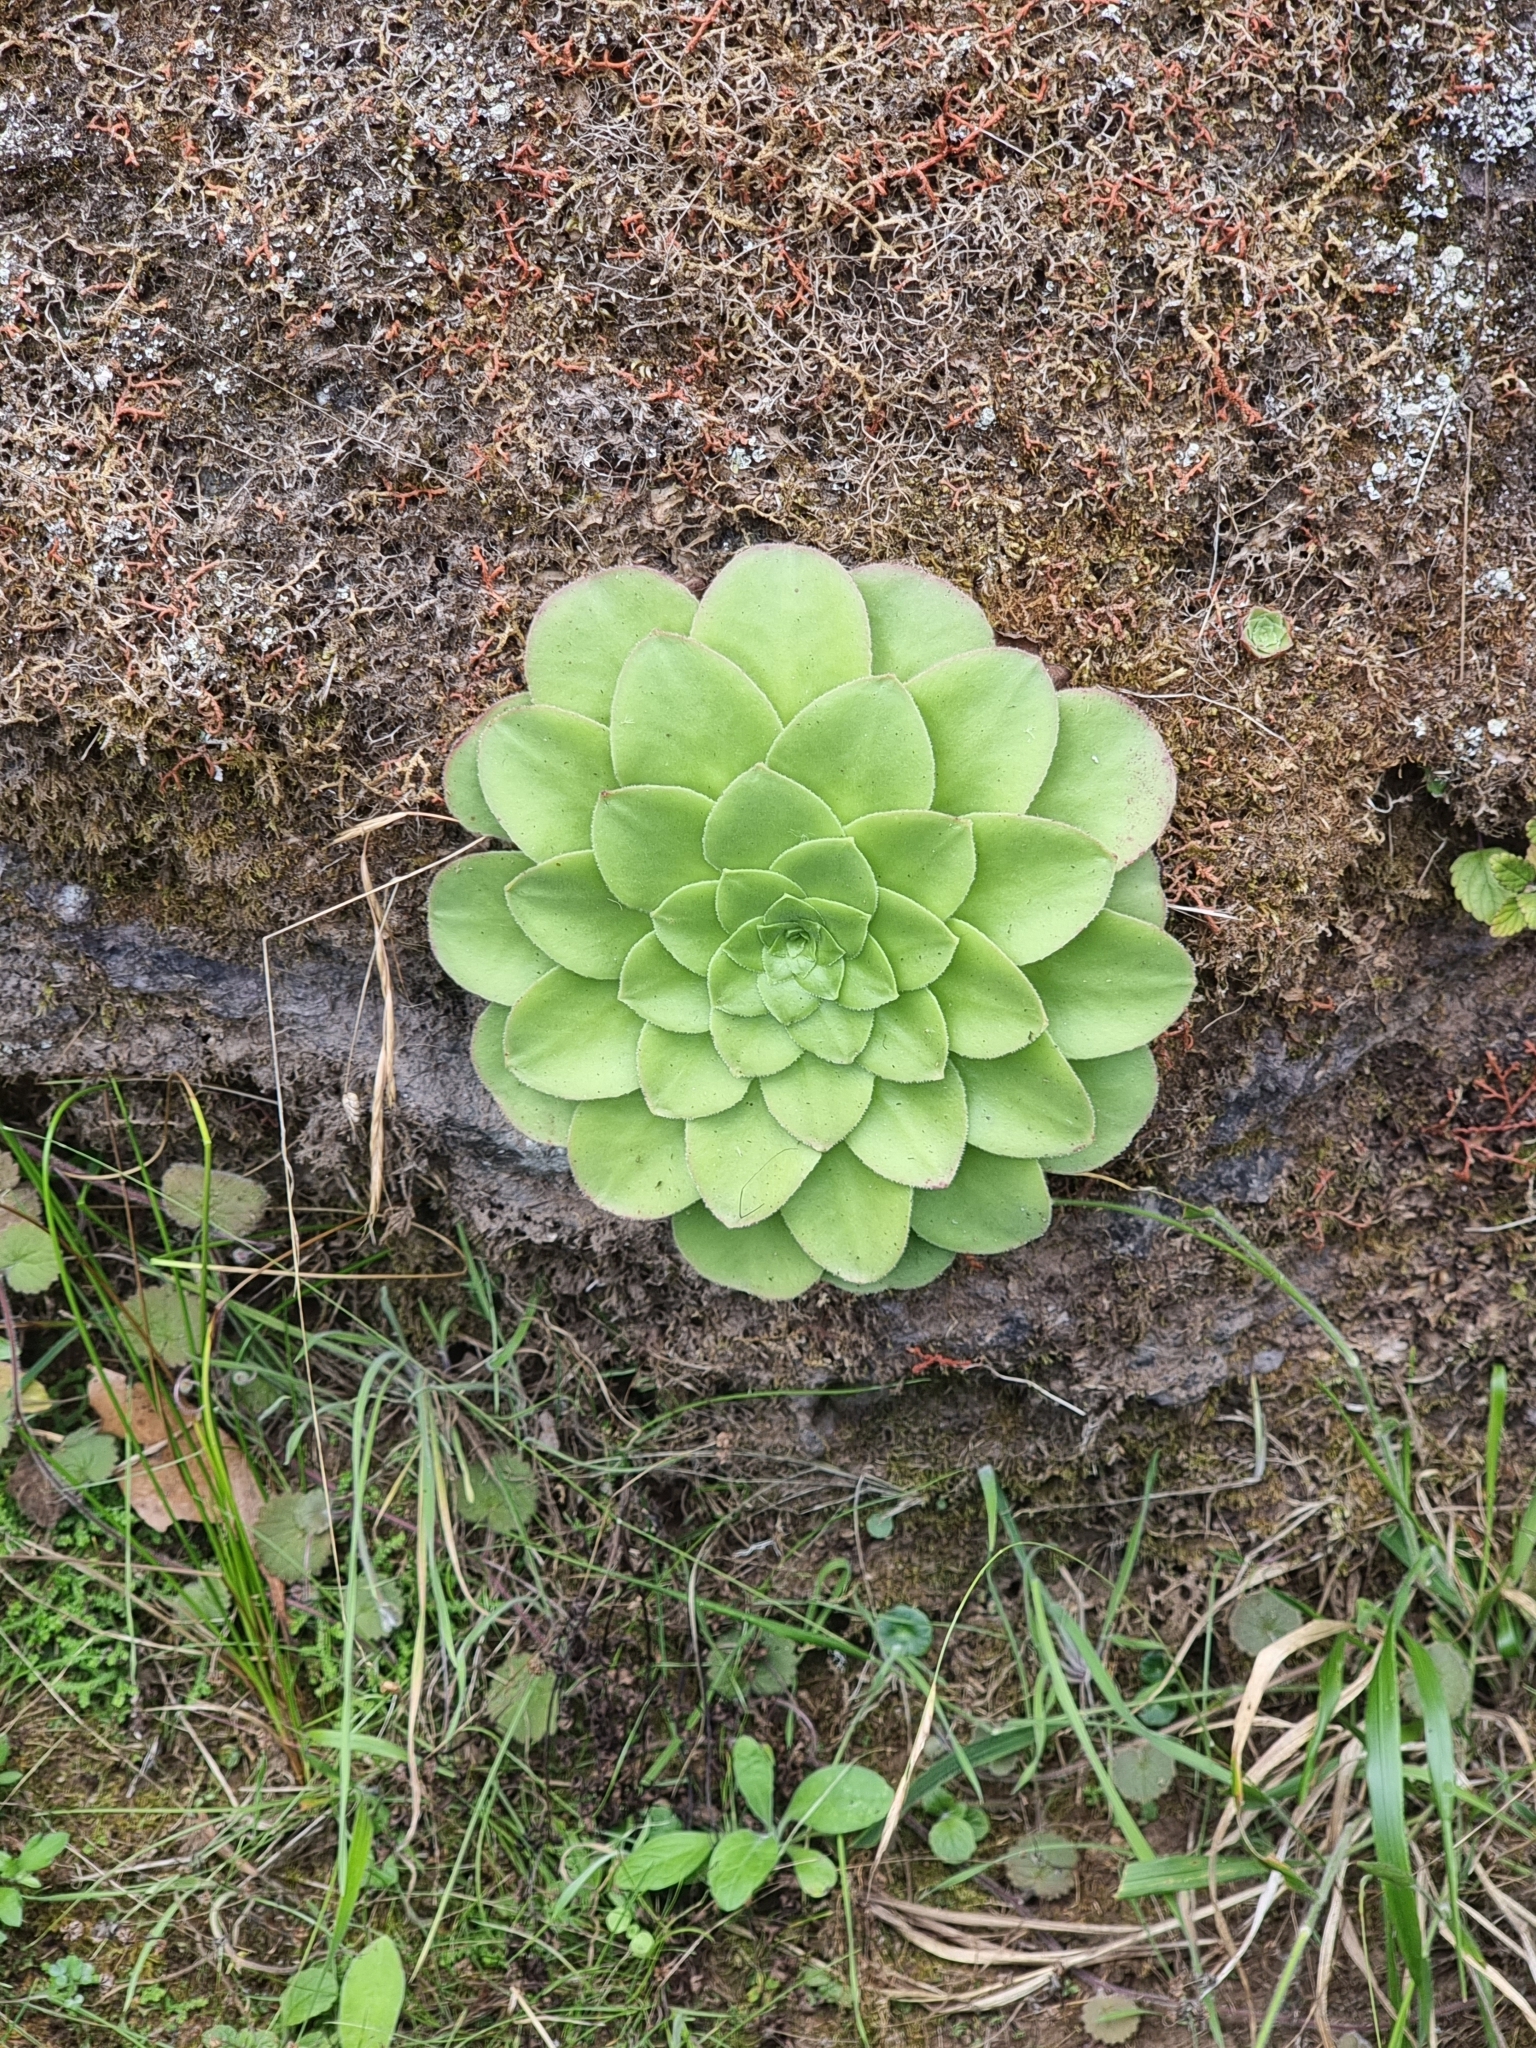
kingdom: Plantae
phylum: Tracheophyta
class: Magnoliopsida
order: Saxifragales
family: Crassulaceae
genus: Aeonium
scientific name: Aeonium glandulosum
